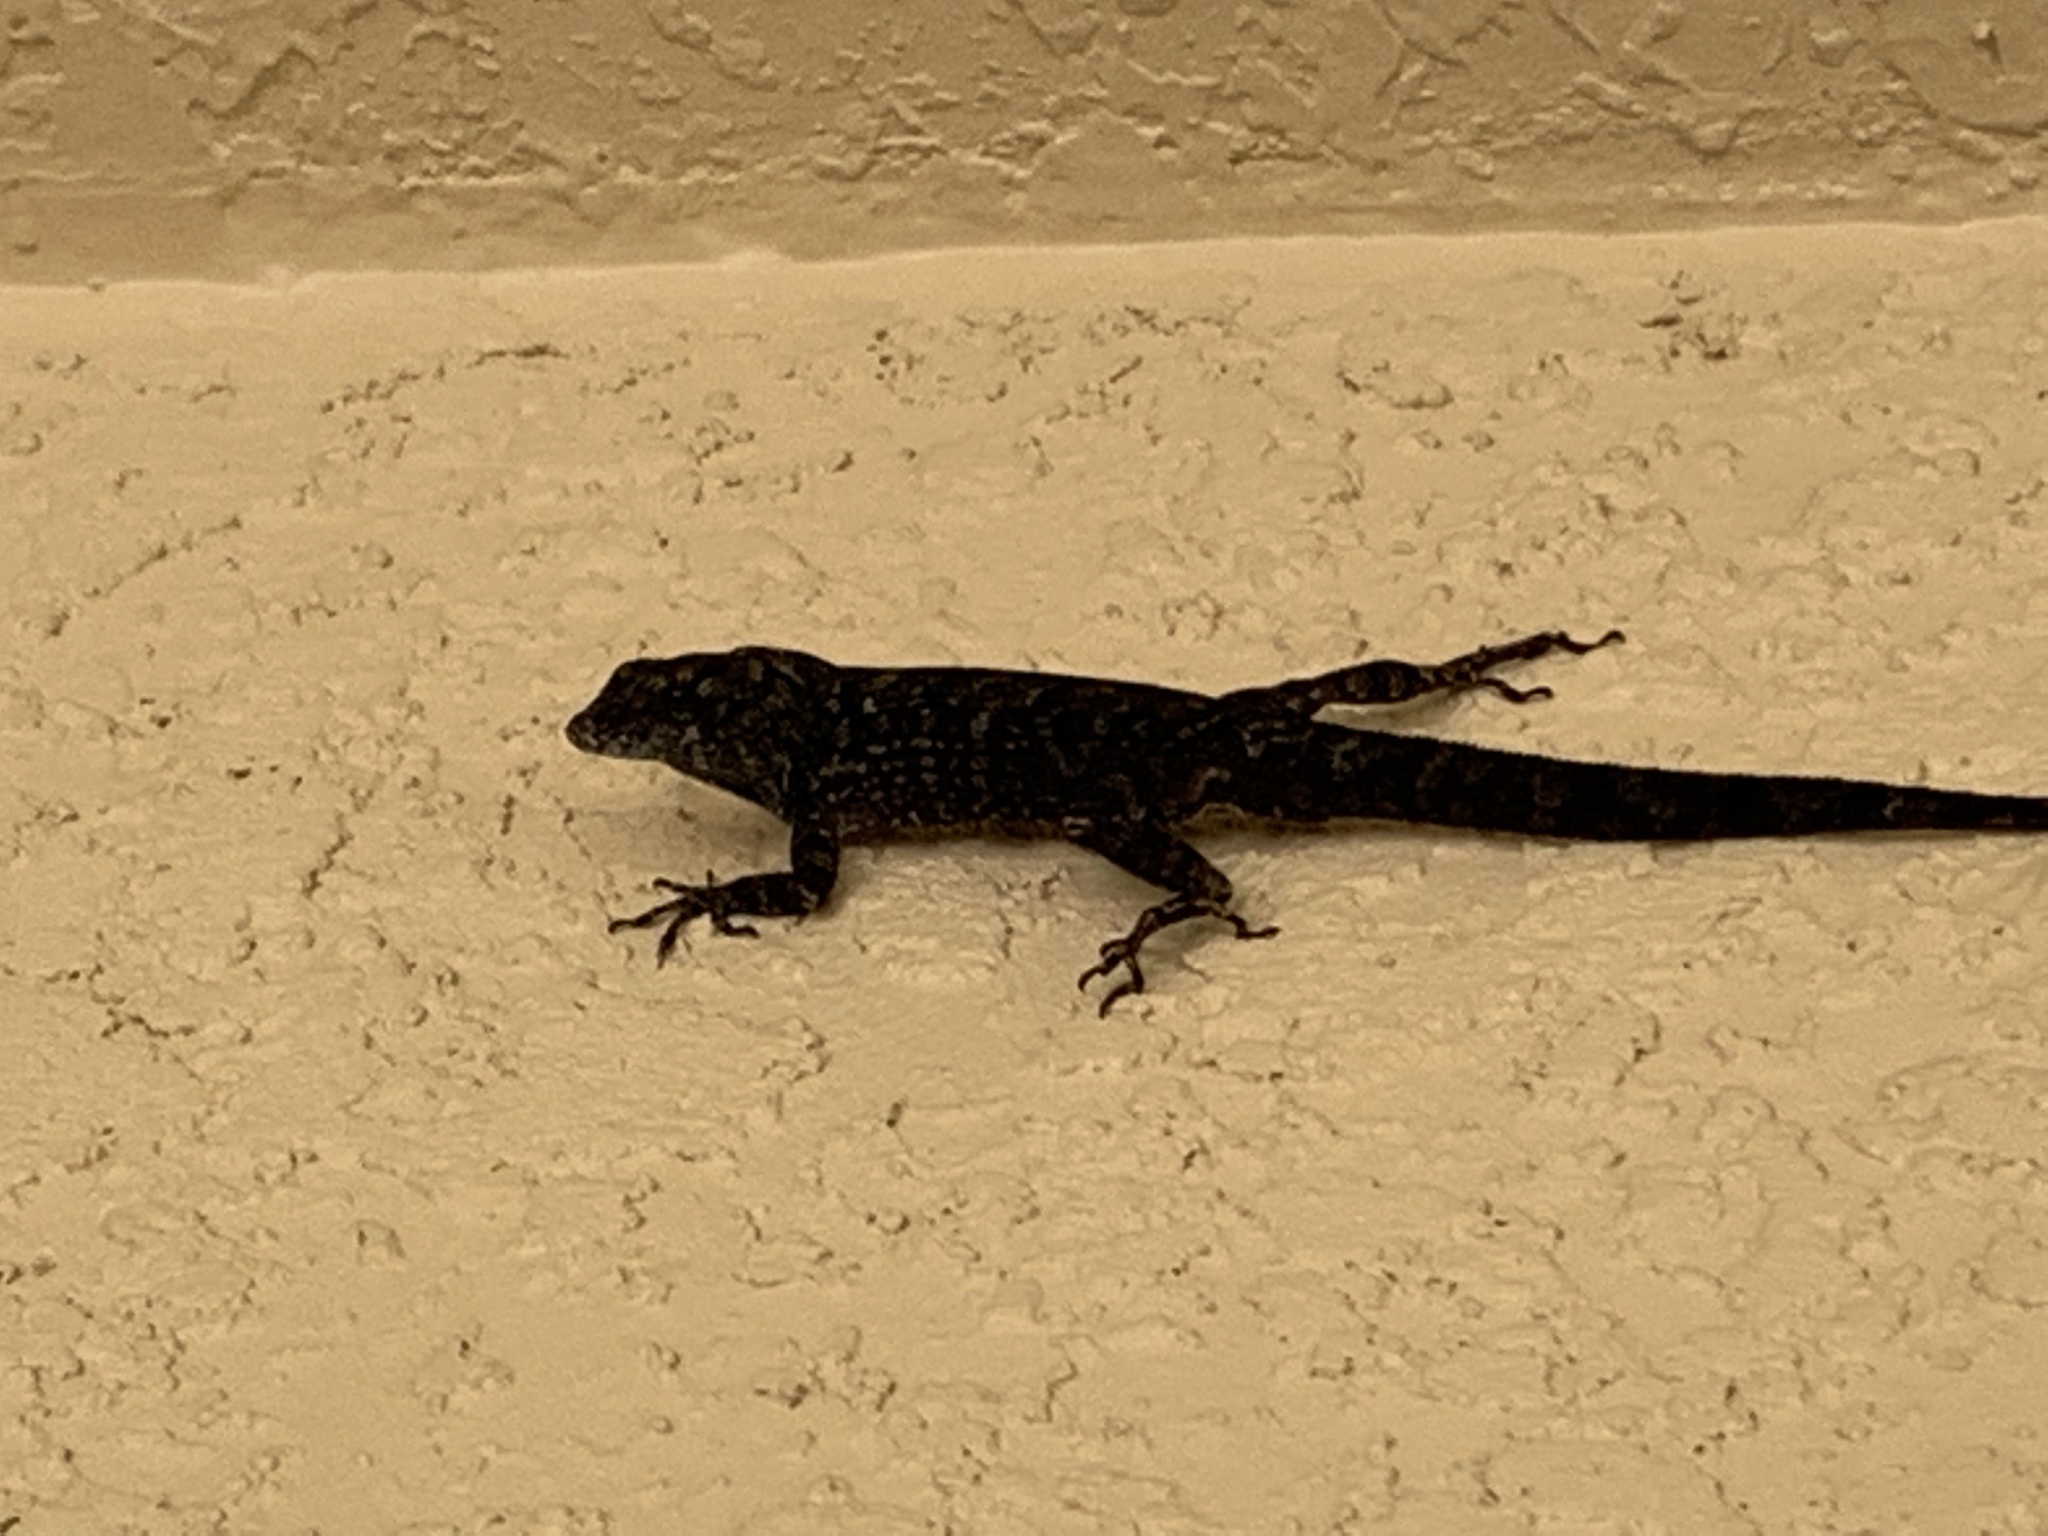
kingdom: Animalia
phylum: Chordata
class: Squamata
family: Dactyloidae
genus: Anolis
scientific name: Anolis sagrei
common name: Brown anole
